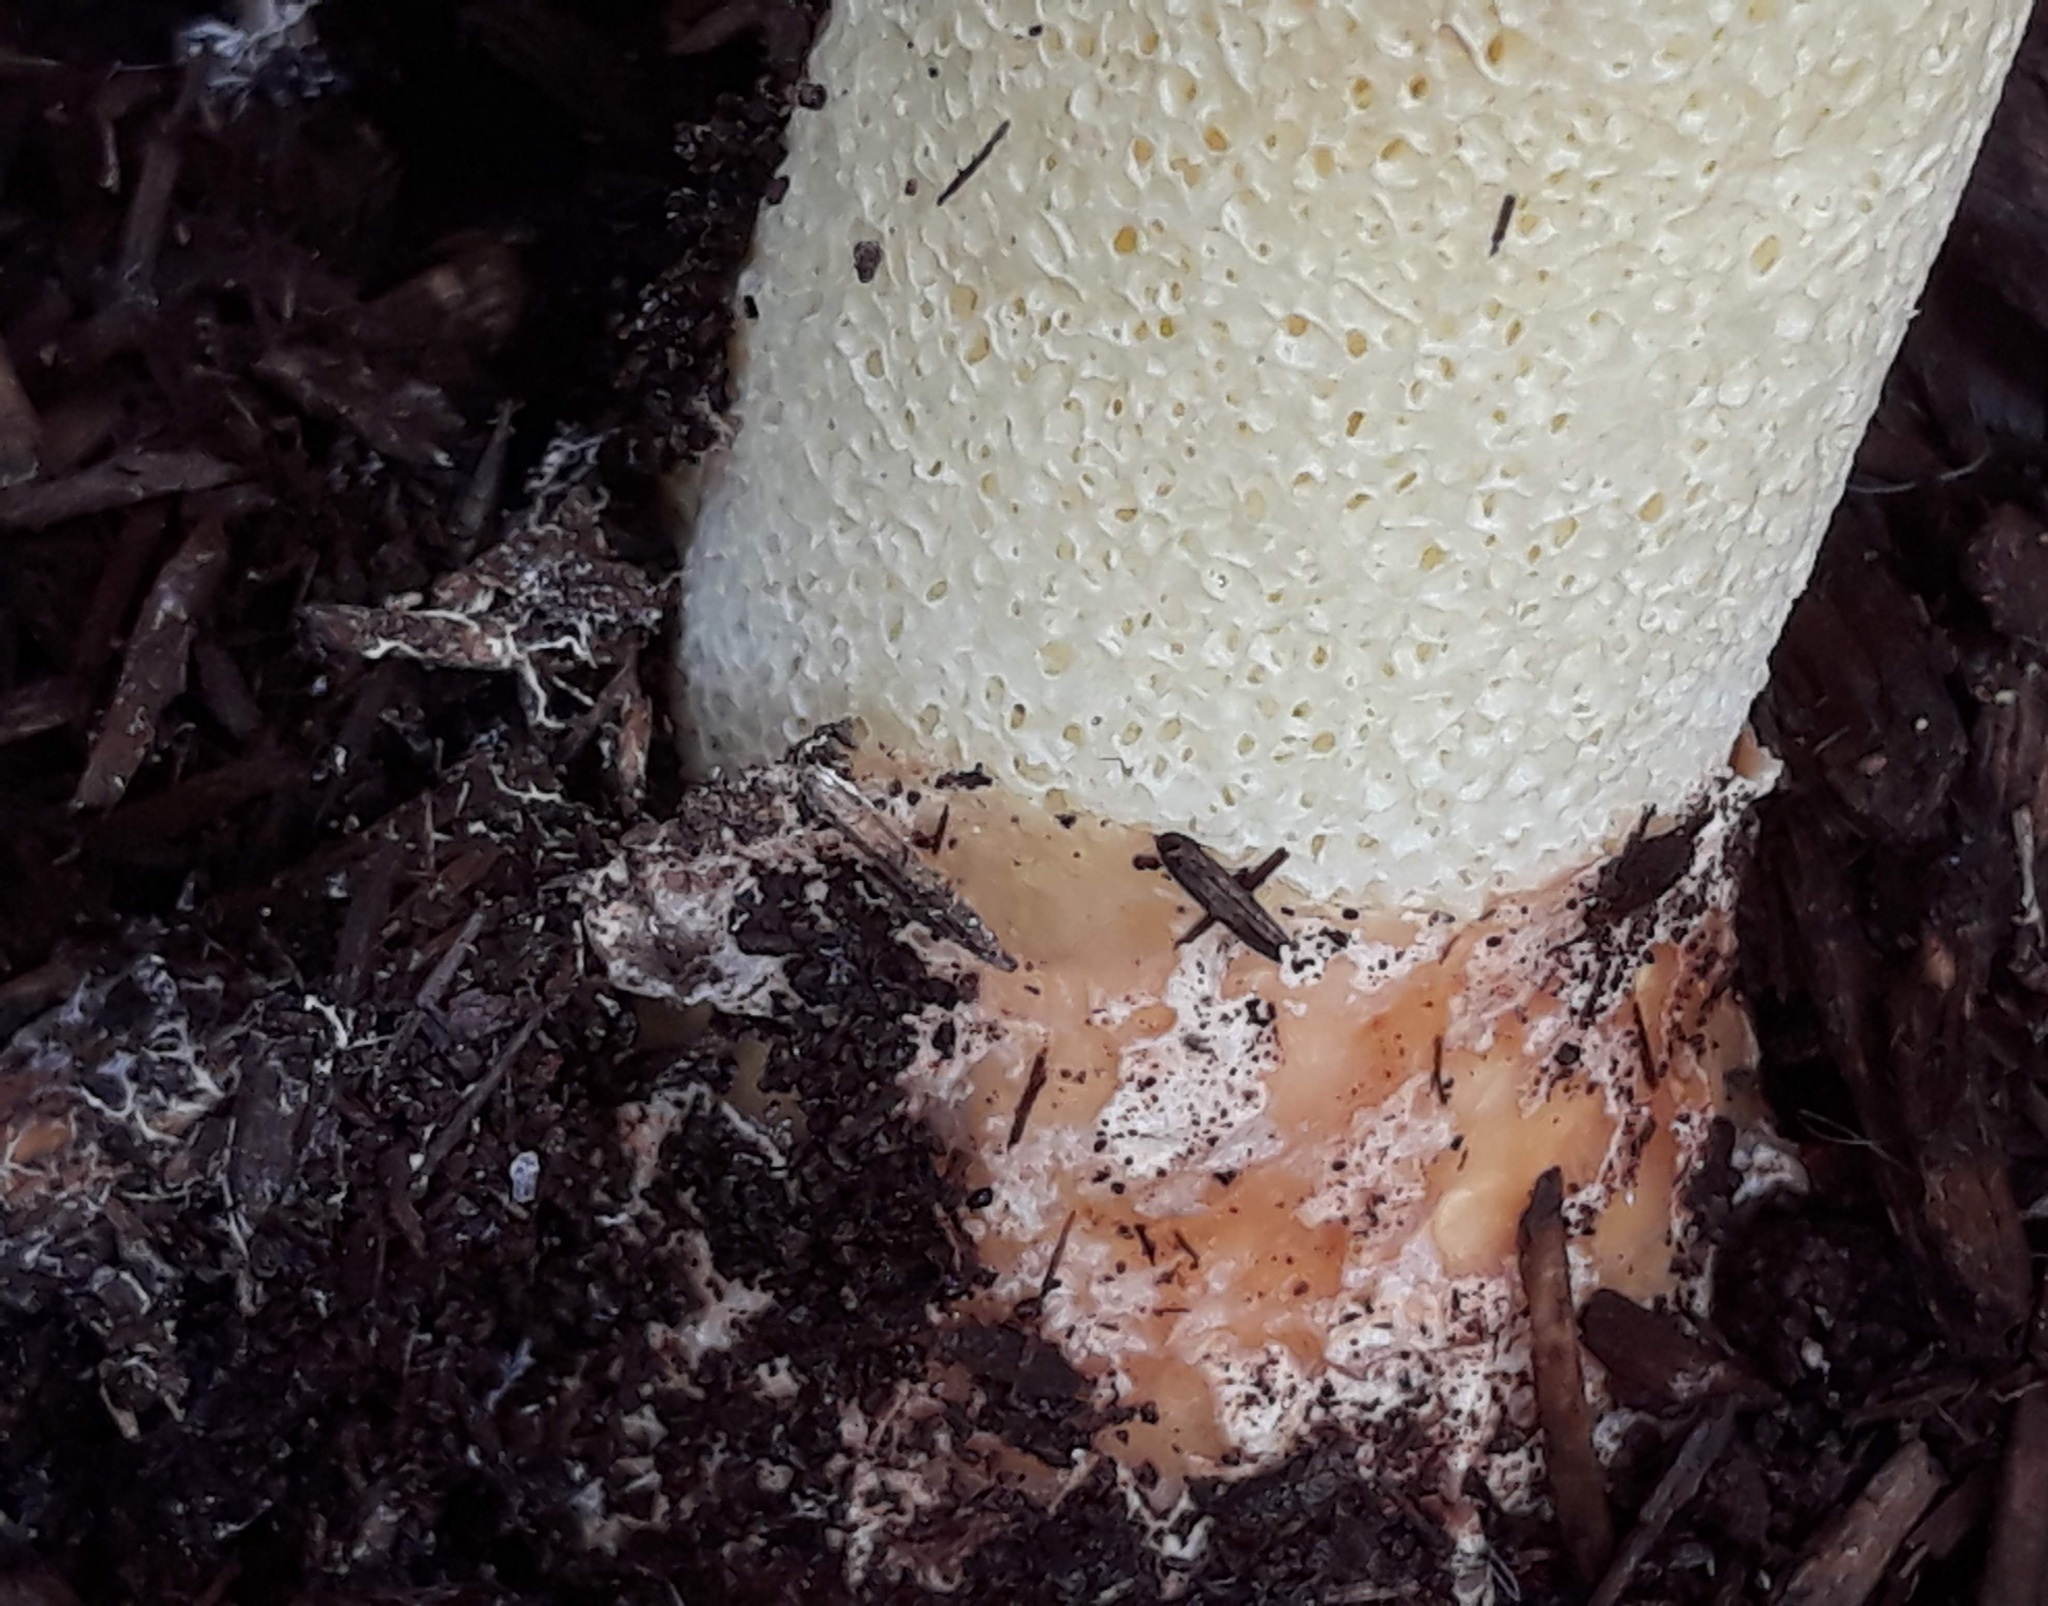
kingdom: Fungi
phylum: Basidiomycota
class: Agaricomycetes
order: Phallales
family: Phallaceae
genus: Phallus
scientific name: Phallus ravenelii
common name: Ravenel's stinkhorn
